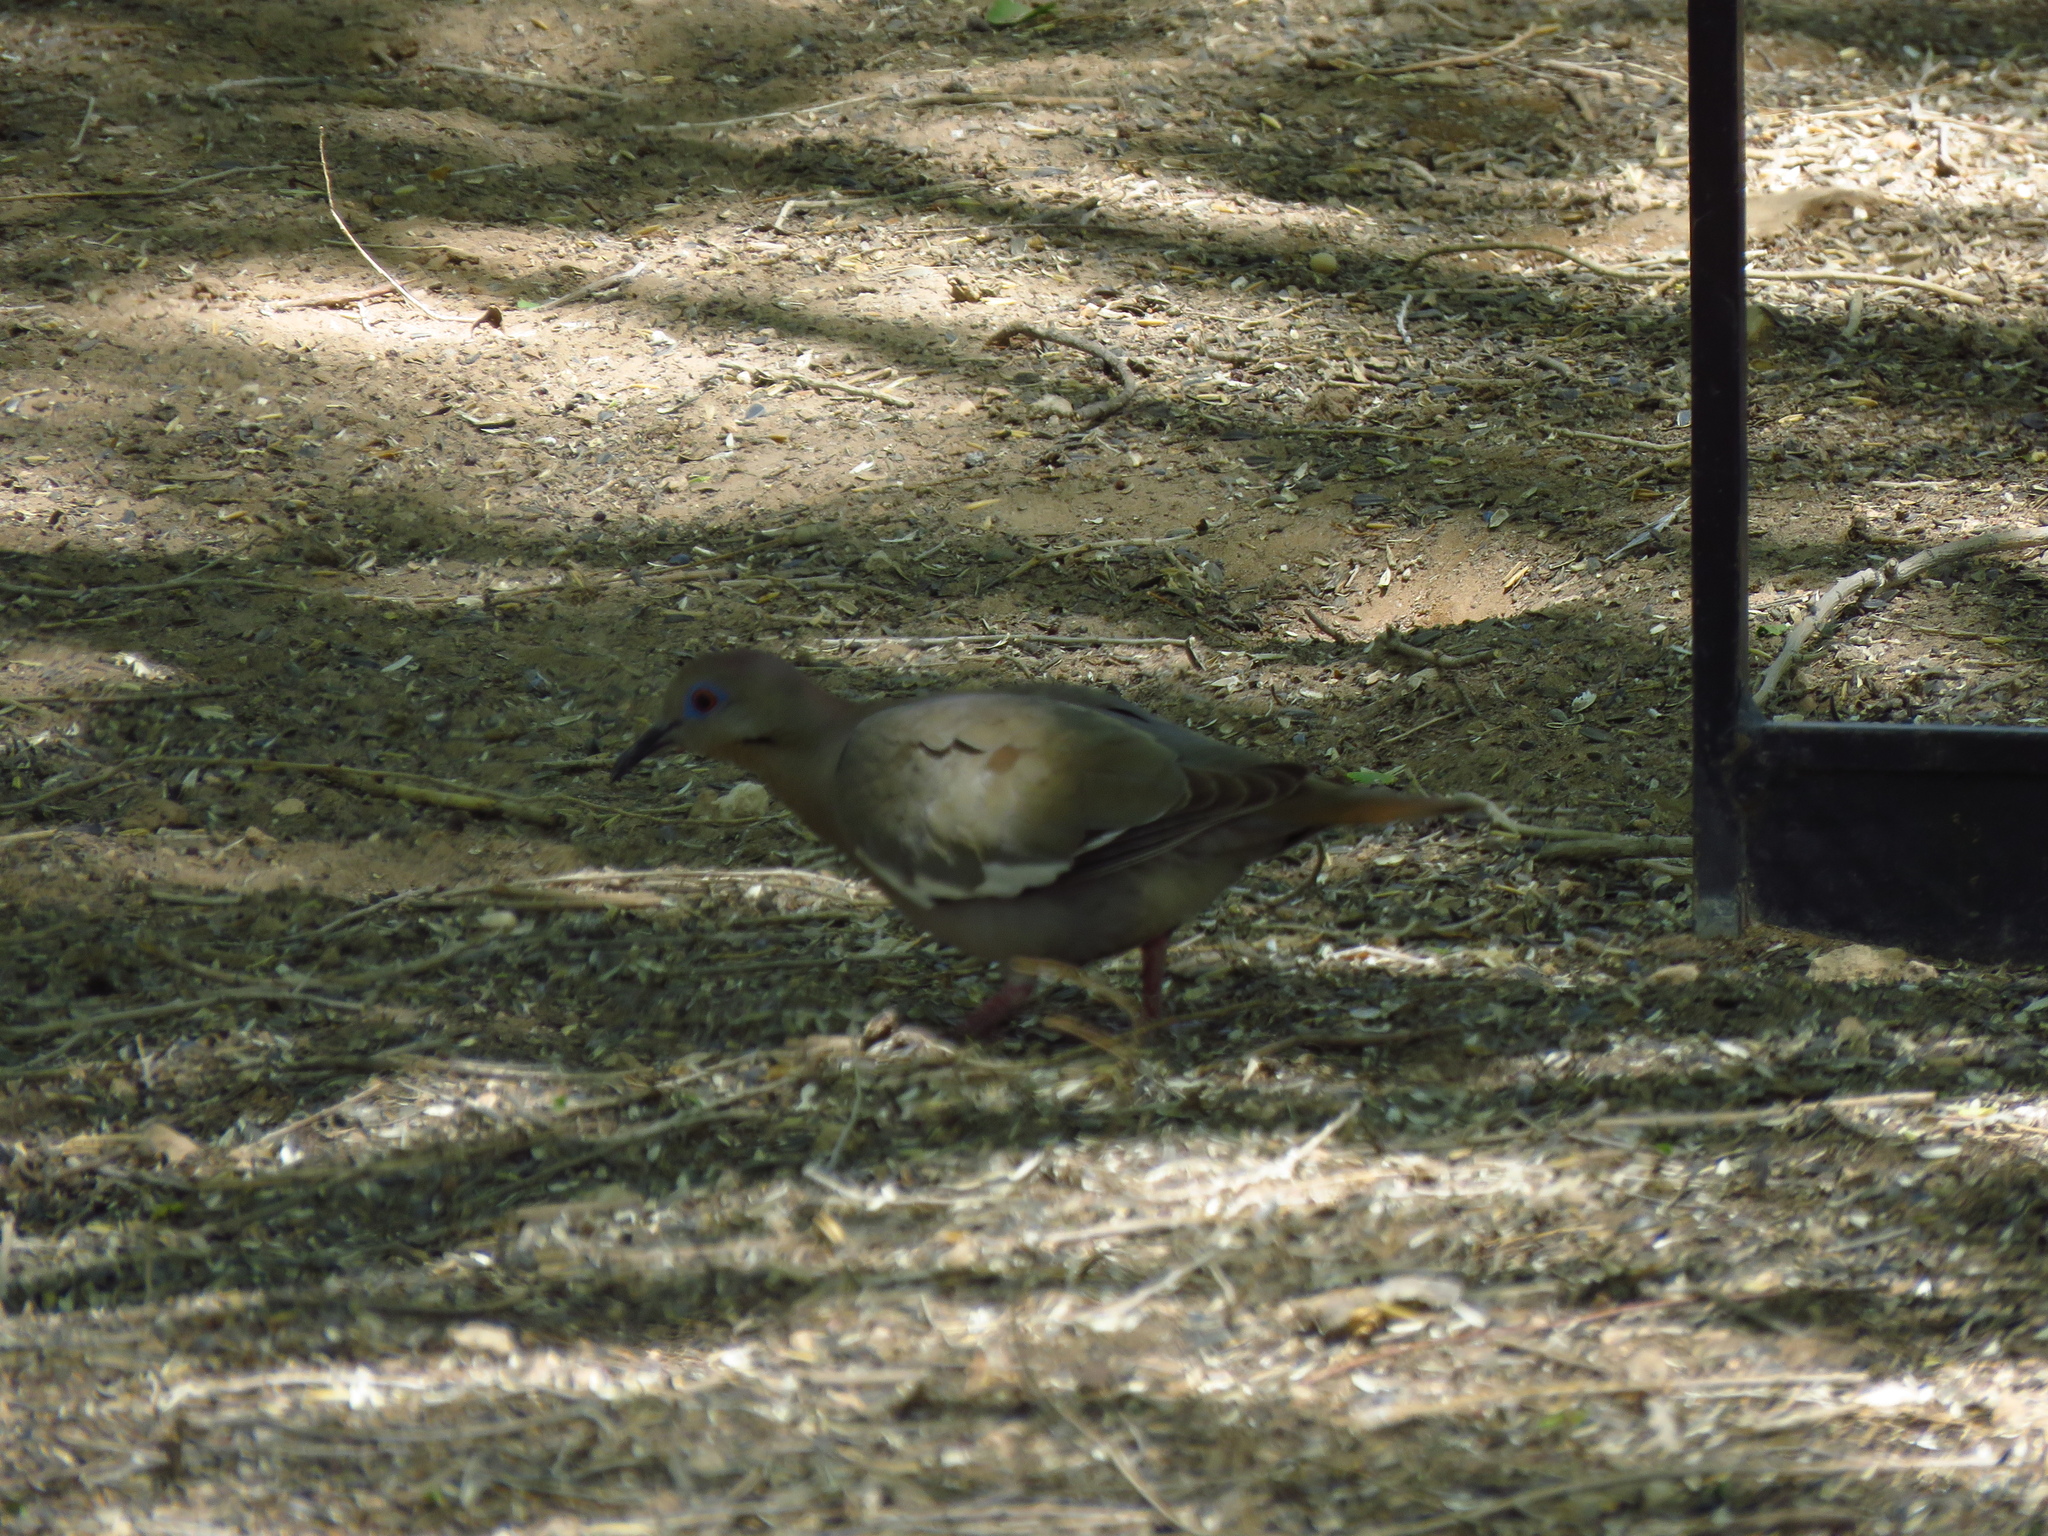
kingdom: Animalia
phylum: Chordata
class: Aves
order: Columbiformes
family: Columbidae
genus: Zenaida
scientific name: Zenaida asiatica
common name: White-winged dove
